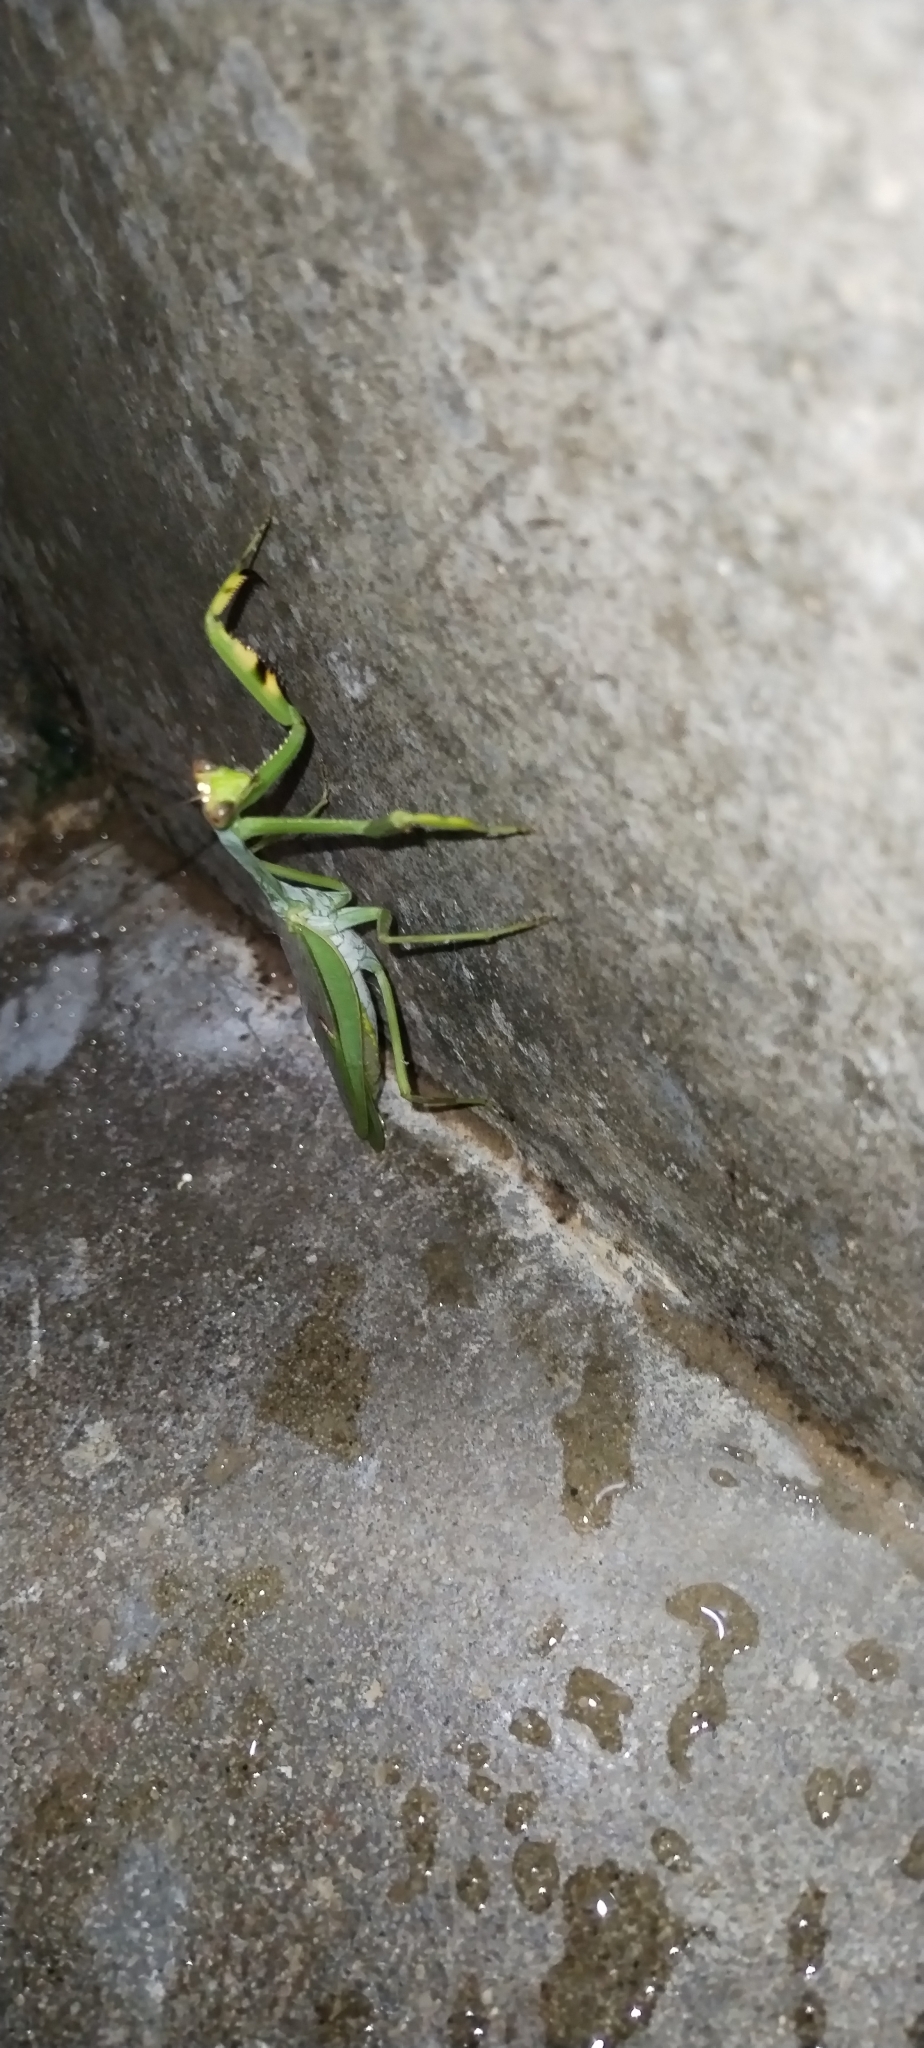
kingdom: Animalia
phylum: Arthropoda
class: Insecta
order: Mantodea
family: Mantidae
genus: Stagmatoptera
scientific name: Stagmatoptera septentrionalis
